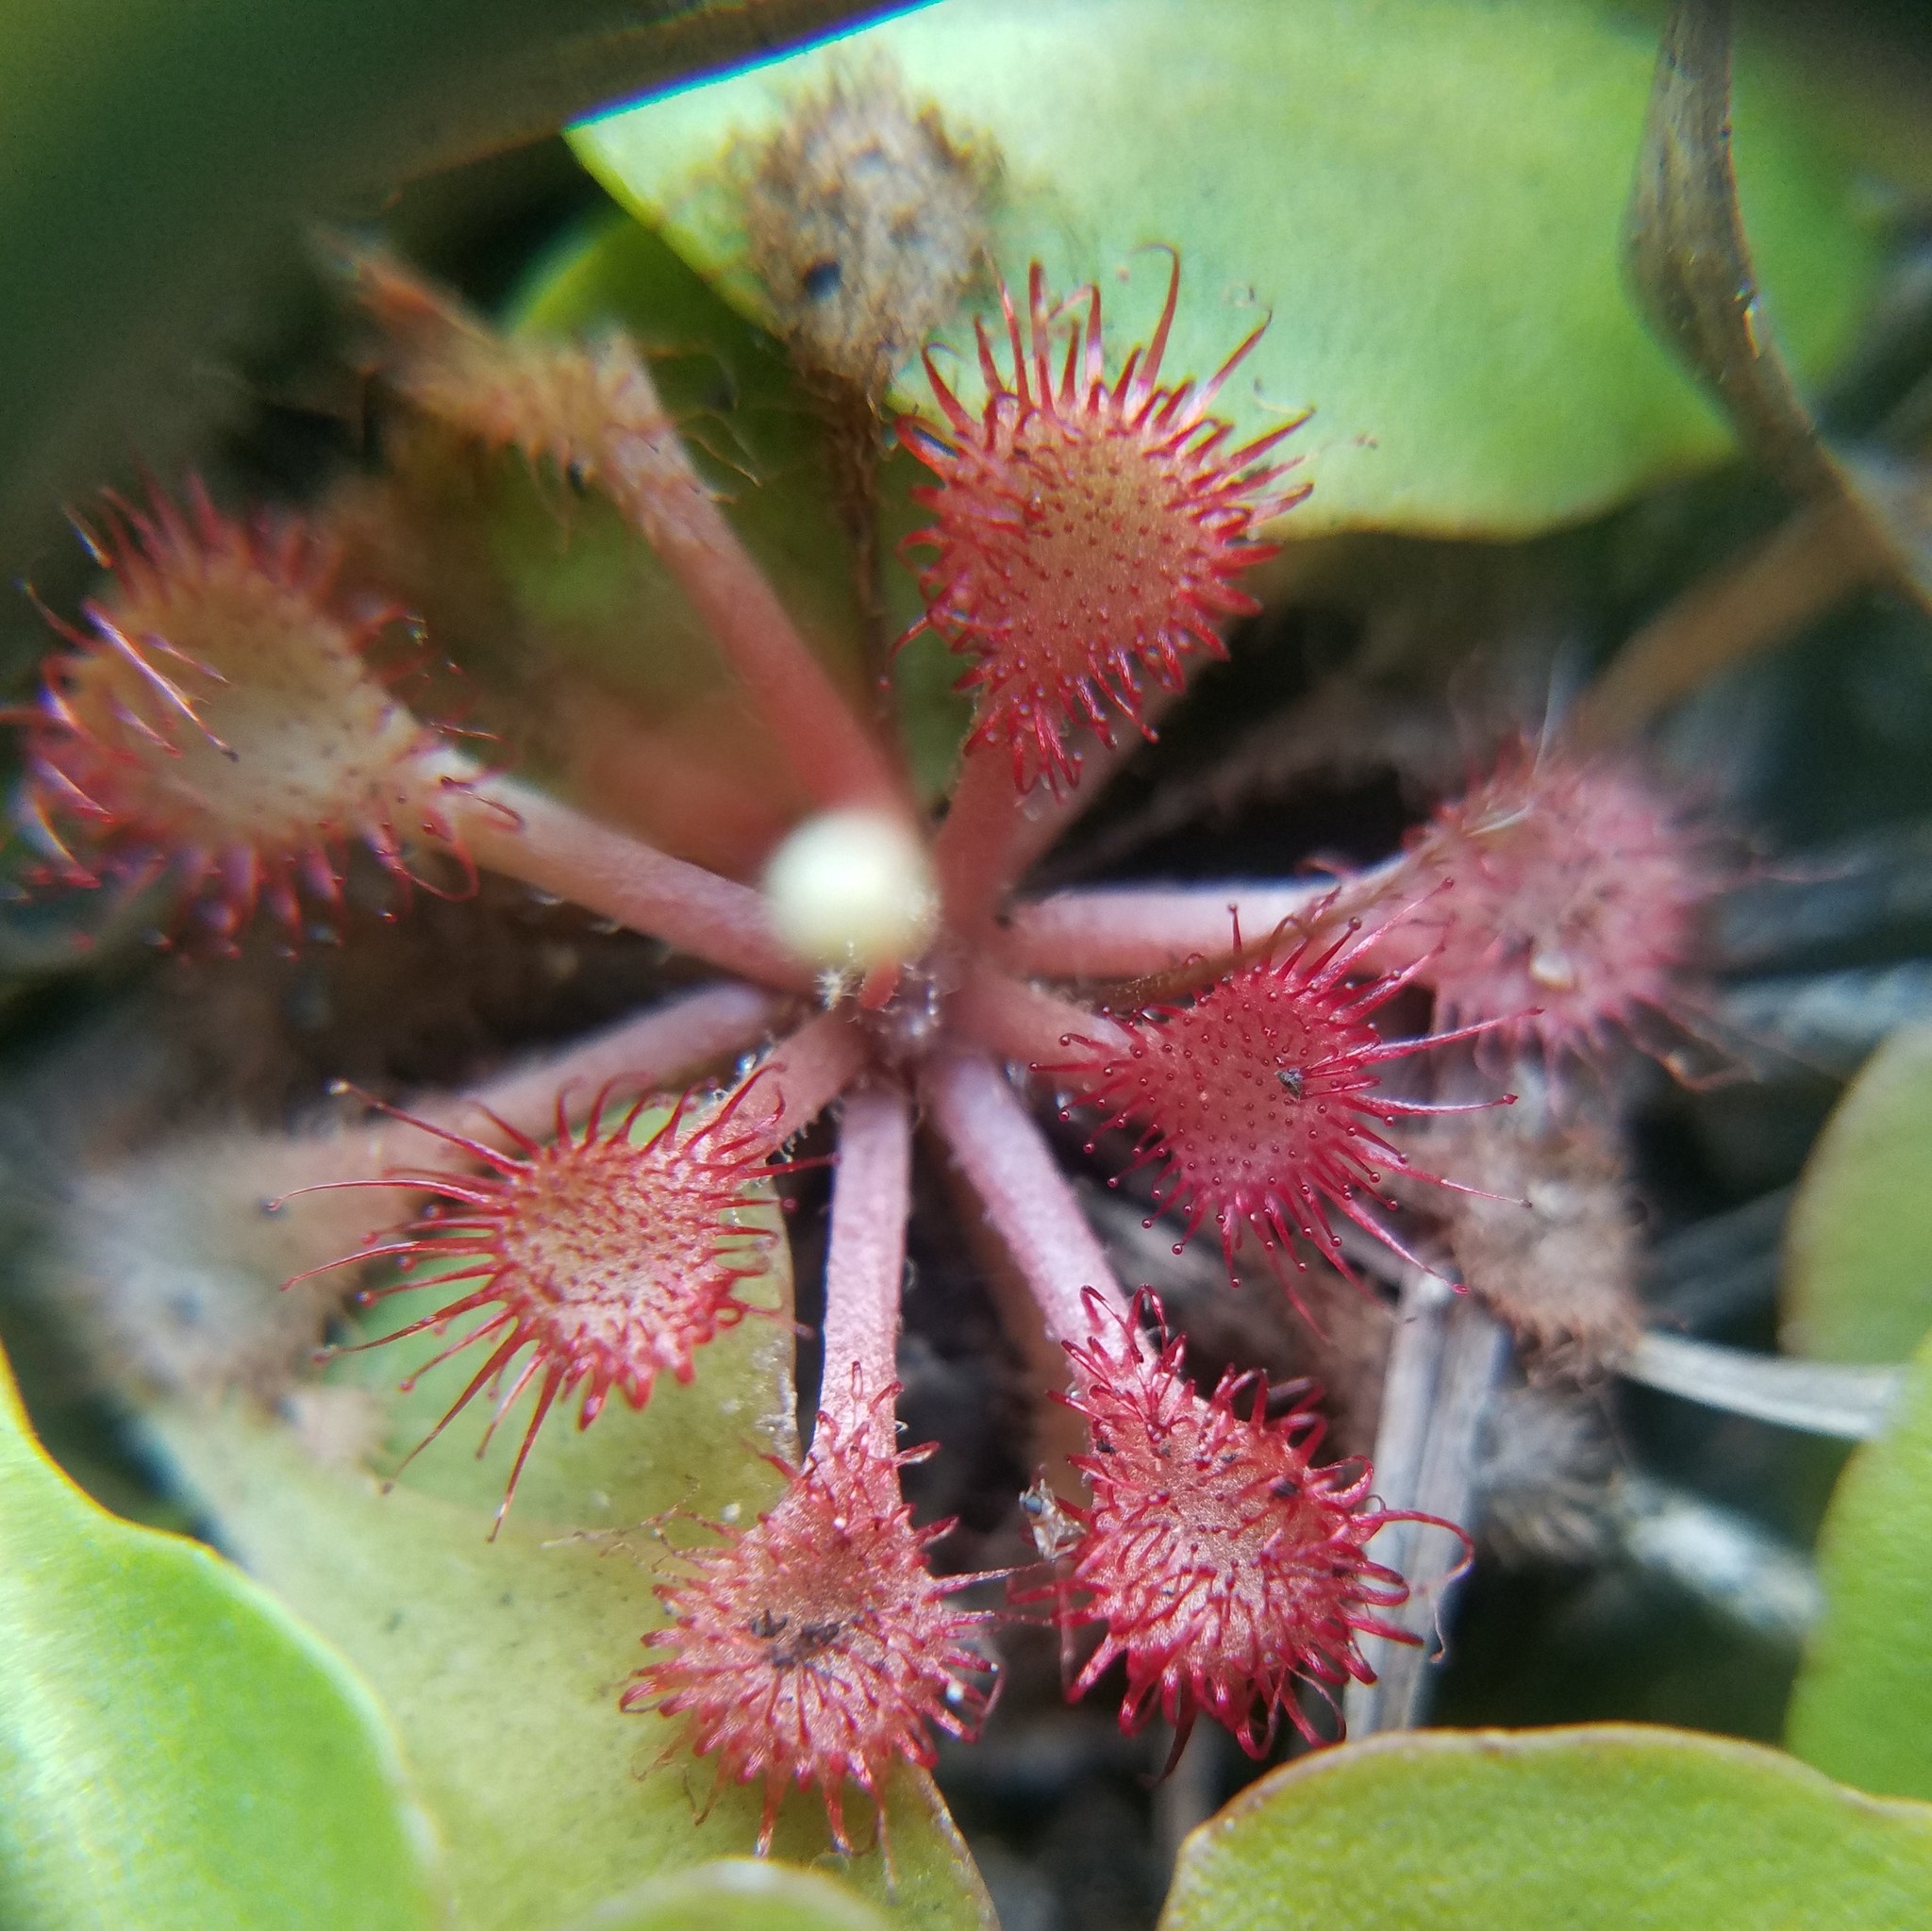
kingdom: Plantae
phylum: Tracheophyta
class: Magnoliopsida
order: Caryophyllales
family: Droseraceae
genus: Drosera
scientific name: Drosera capillaris
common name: Pink sundew
